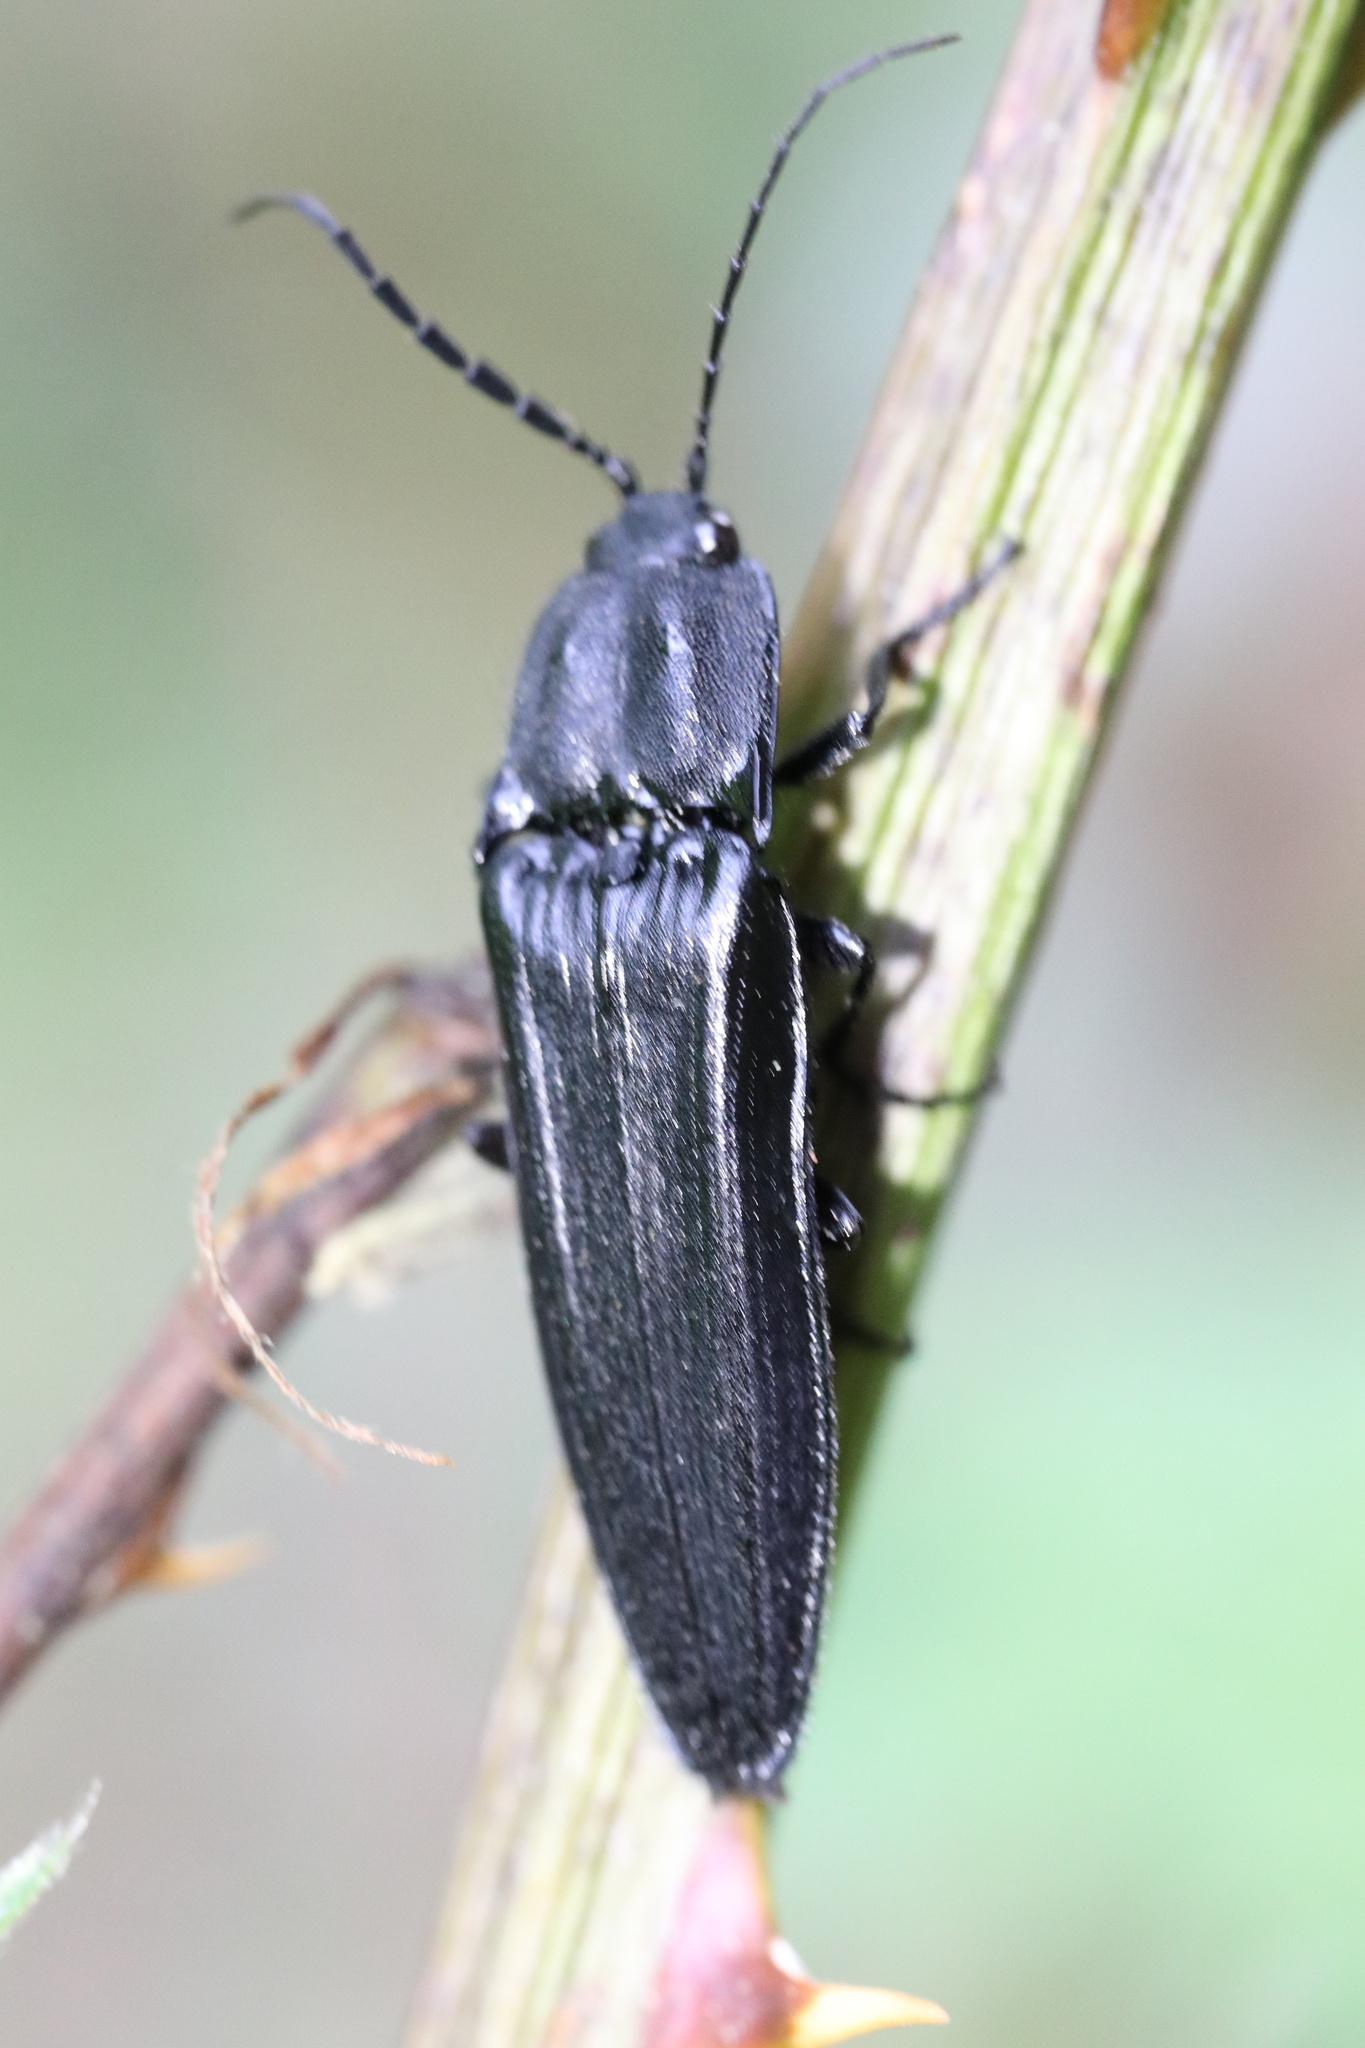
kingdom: Animalia
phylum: Arthropoda
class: Insecta
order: Coleoptera
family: Elateridae
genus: Tibionema
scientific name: Tibionema
